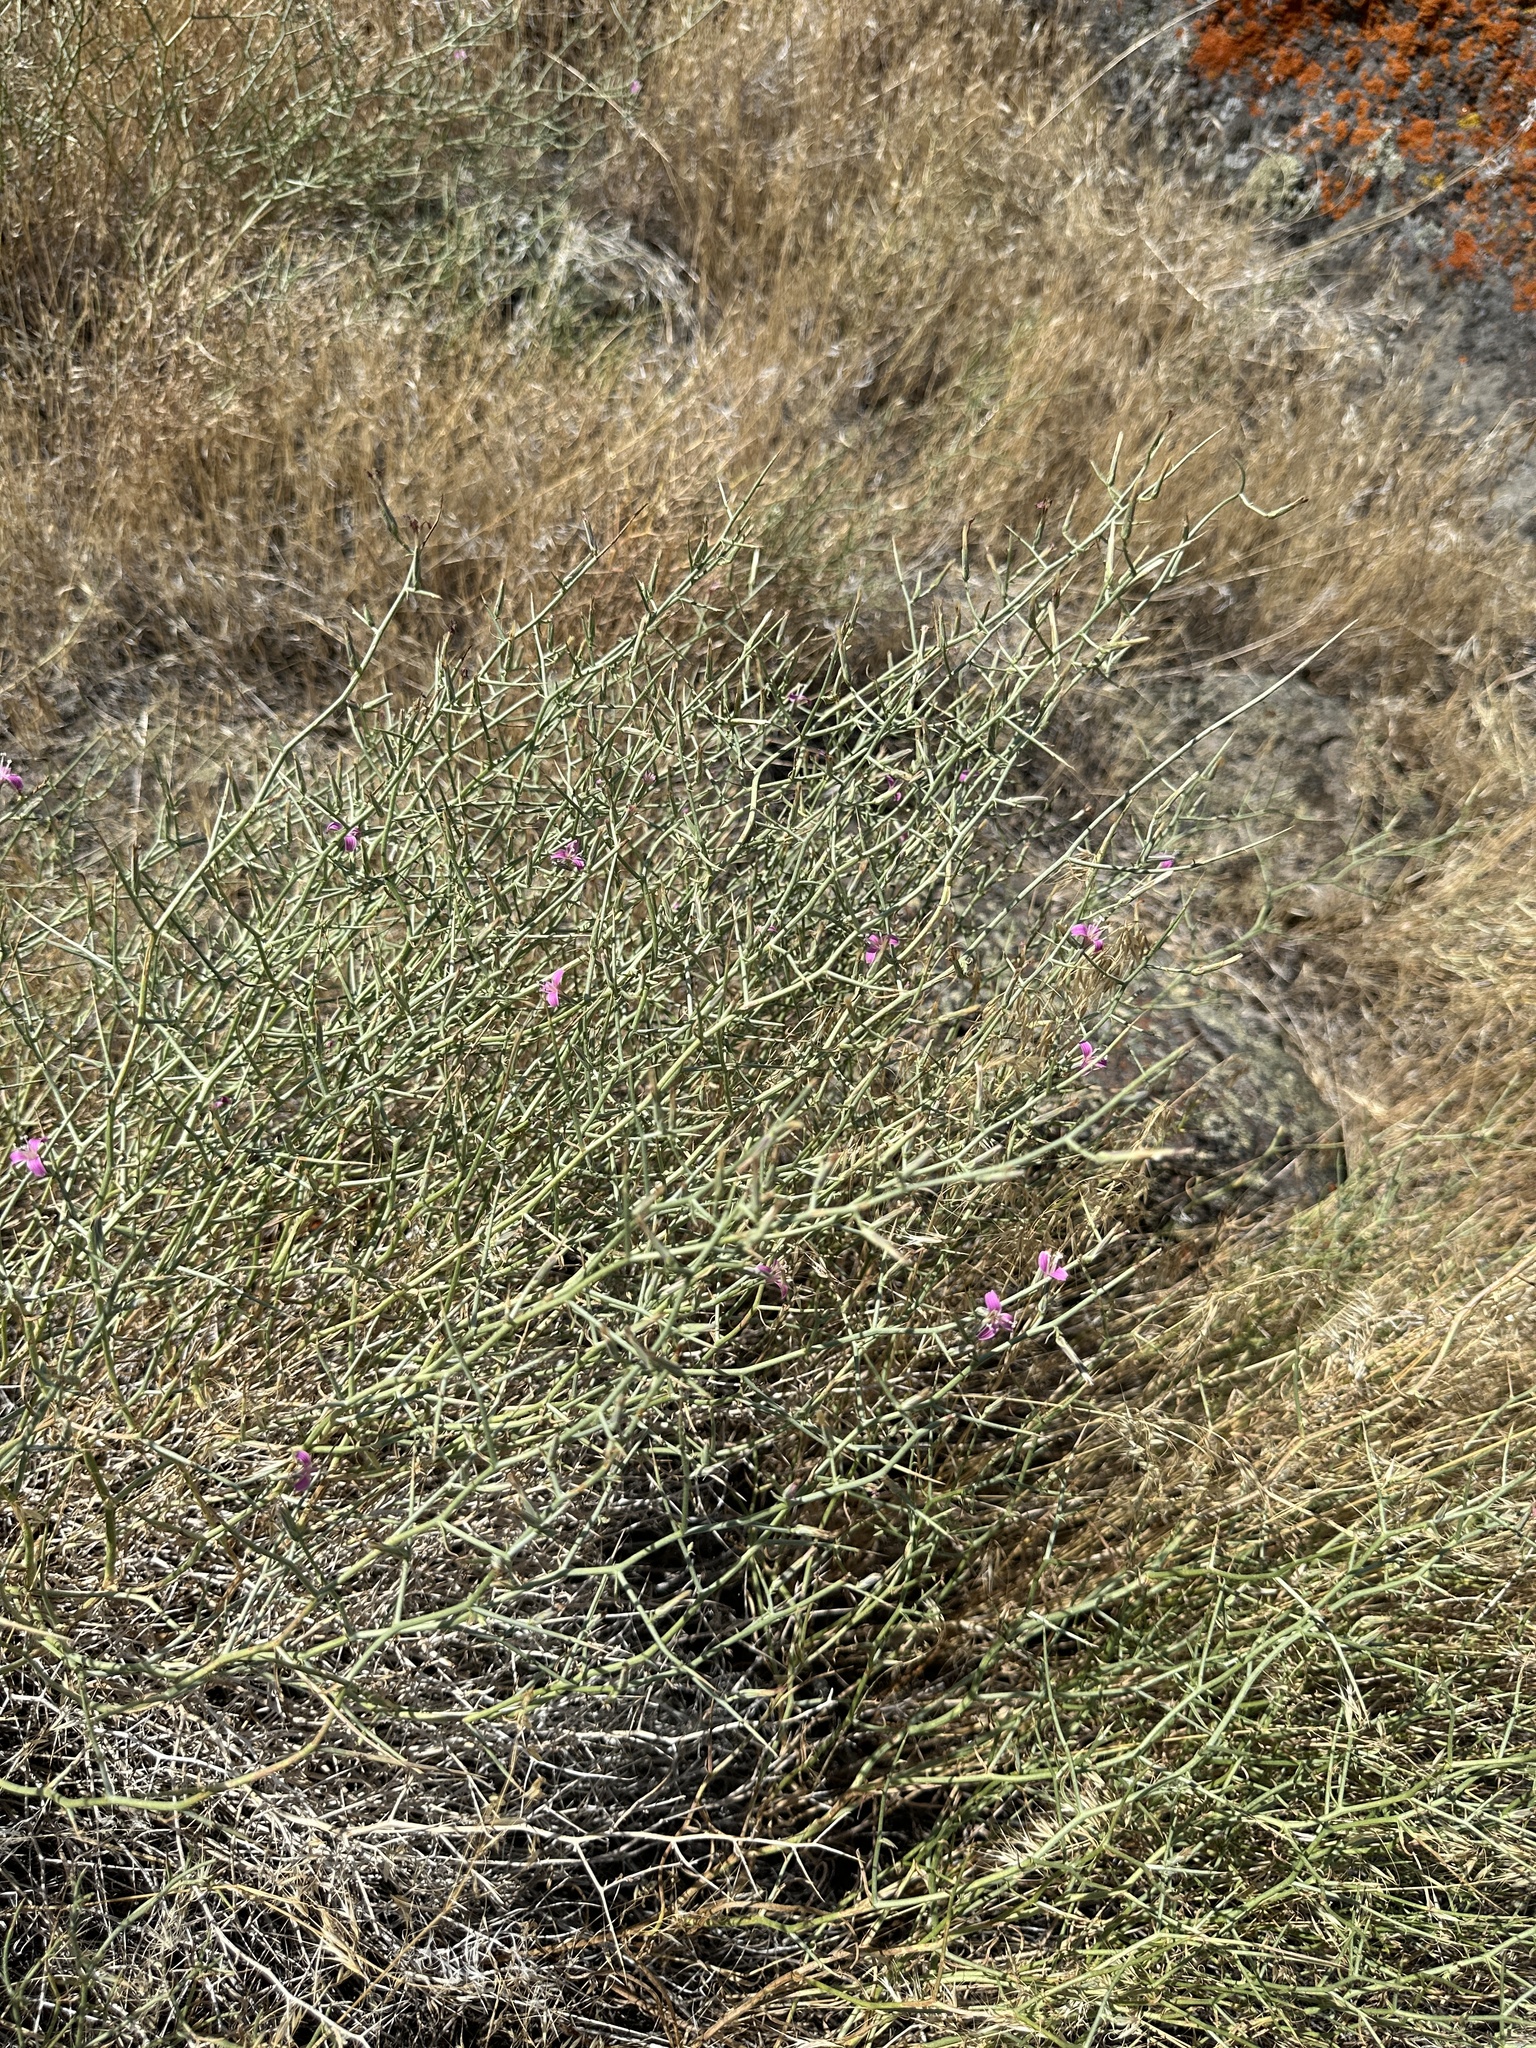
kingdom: Plantae
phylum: Tracheophyta
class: Magnoliopsida
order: Asterales
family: Asteraceae
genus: Pleiacanthus
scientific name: Pleiacanthus spinosus
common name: Thorny skeleton-weed
